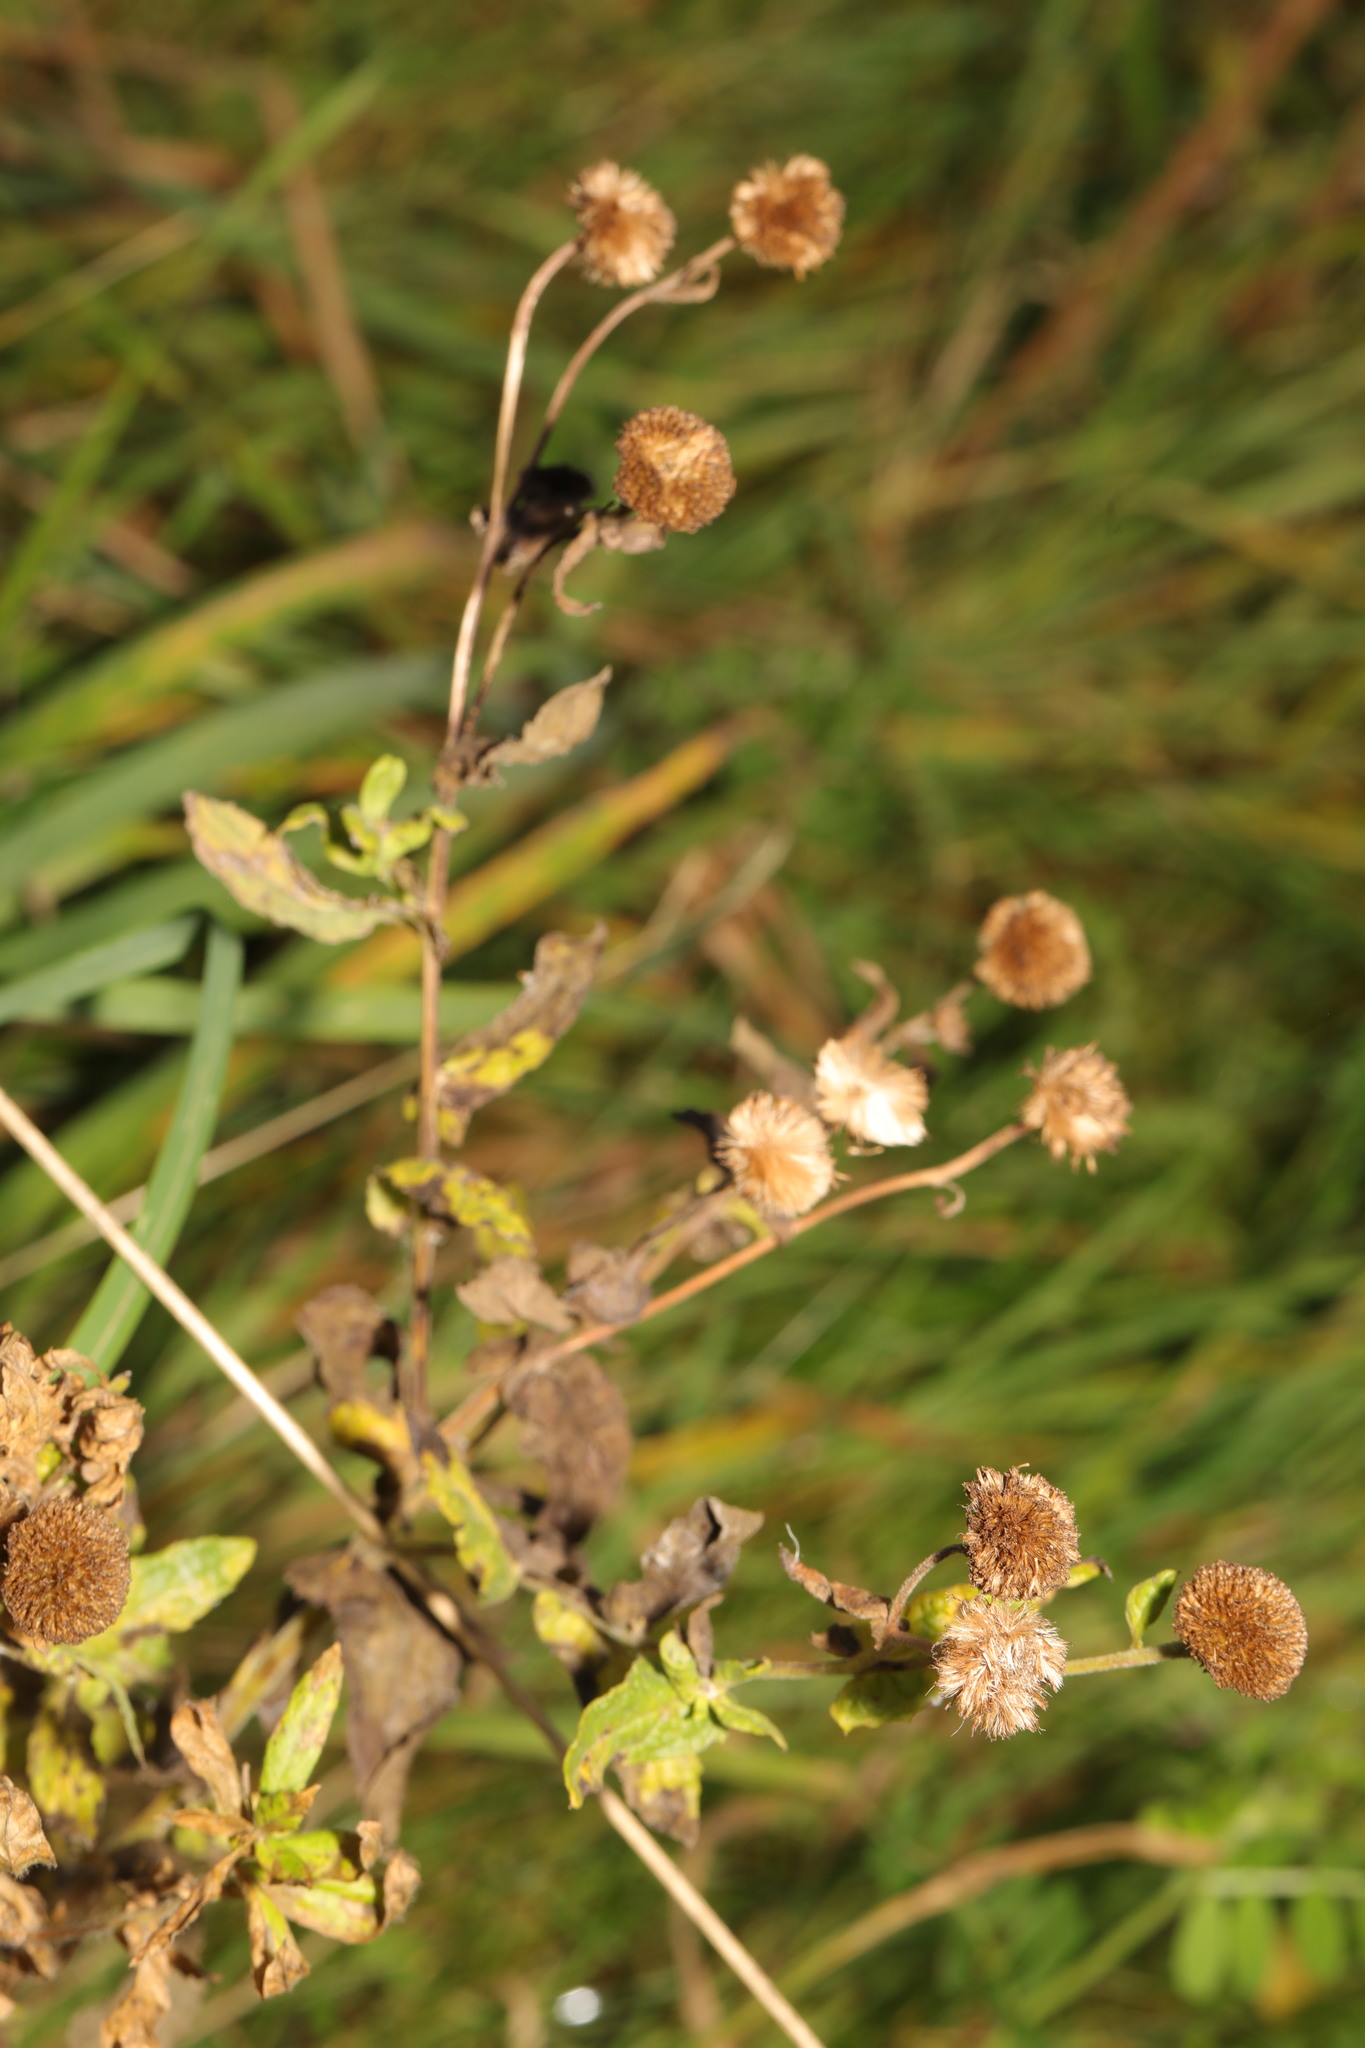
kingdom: Plantae
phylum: Tracheophyta
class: Magnoliopsida
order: Asterales
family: Asteraceae
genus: Pulicaria
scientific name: Pulicaria dysenterica
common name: Common fleabane
